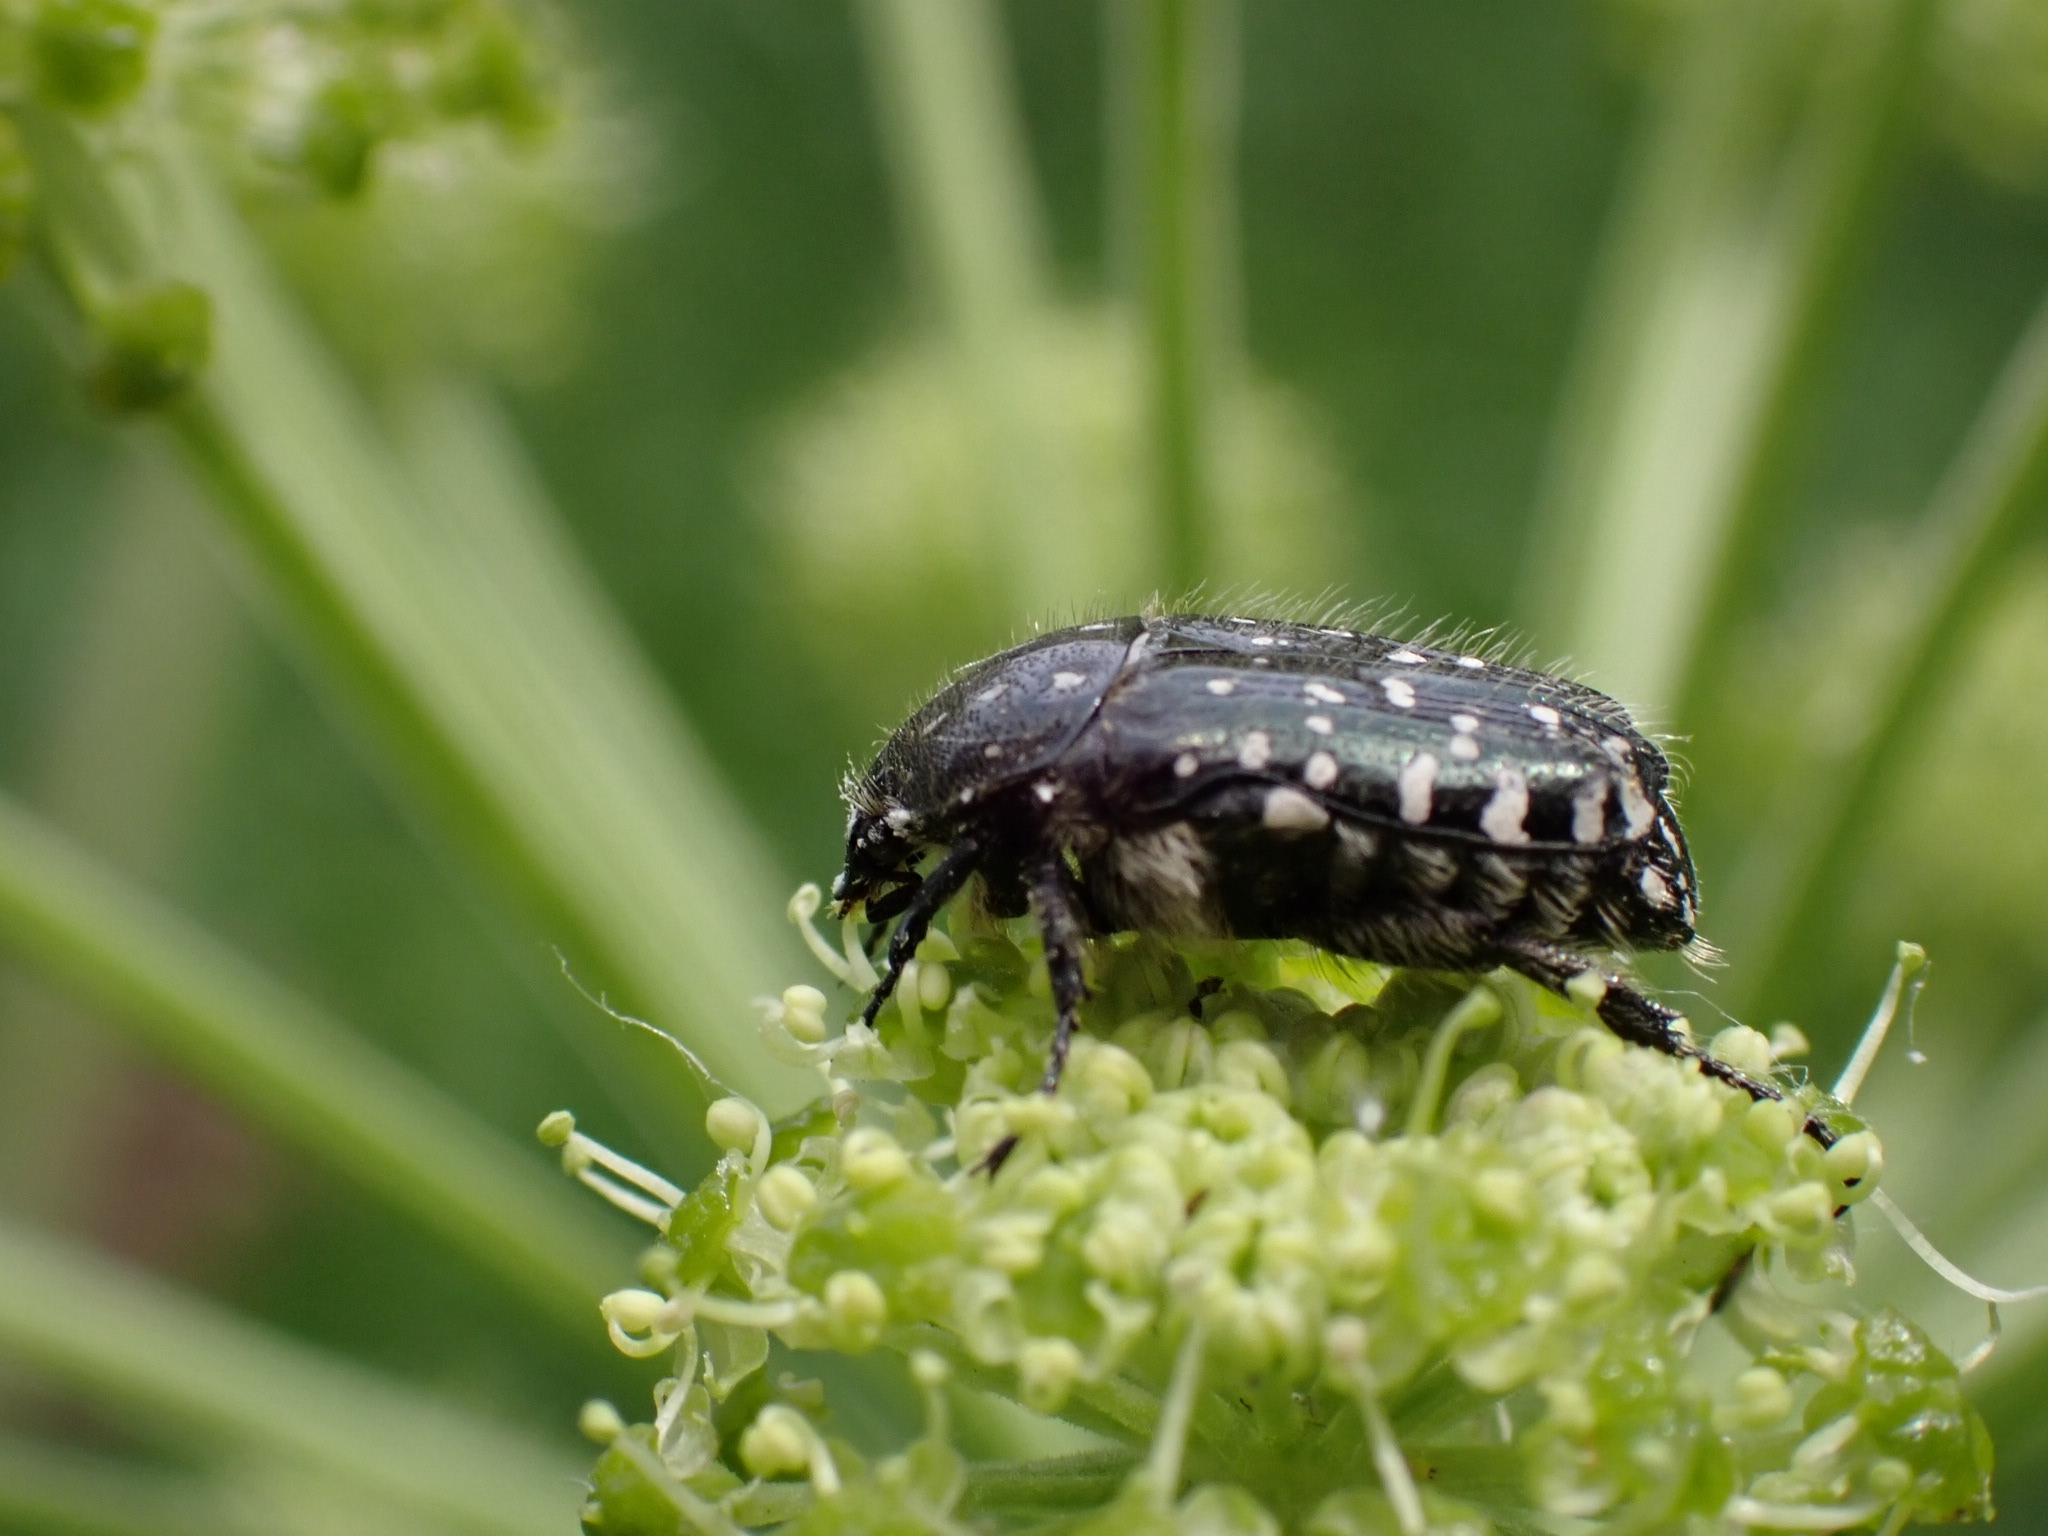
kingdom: Animalia
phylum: Arthropoda
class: Insecta
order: Coleoptera
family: Scarabaeidae
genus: Oxythyrea
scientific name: Oxythyrea funesta
